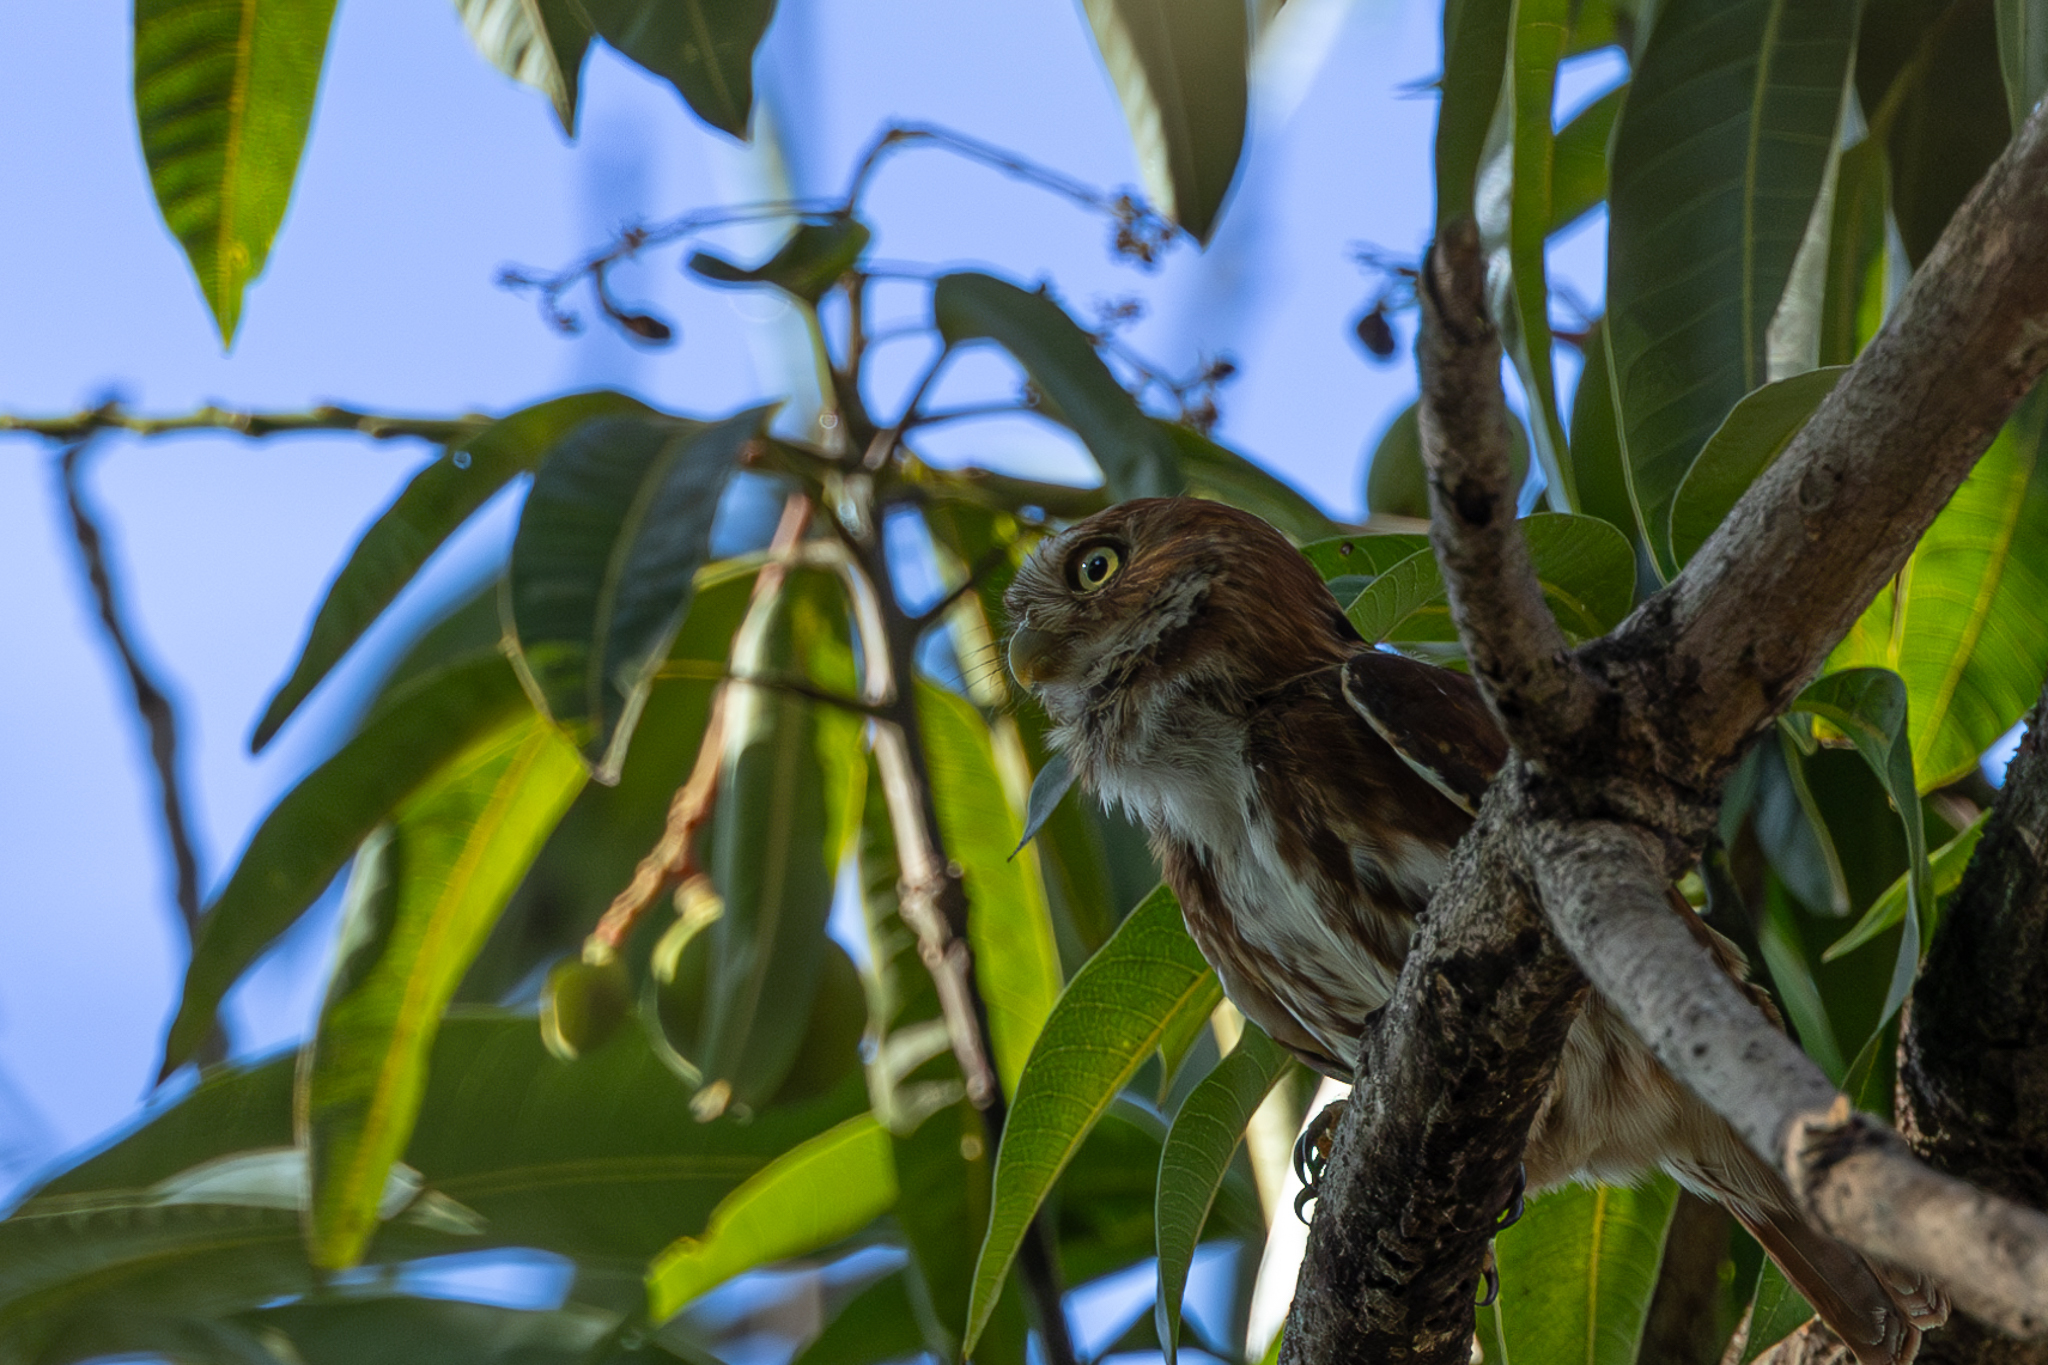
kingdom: Animalia
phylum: Chordata
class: Aves
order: Strigiformes
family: Strigidae
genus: Glaucidium
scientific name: Glaucidium brasilianum
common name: Ferruginous pygmy-owl
